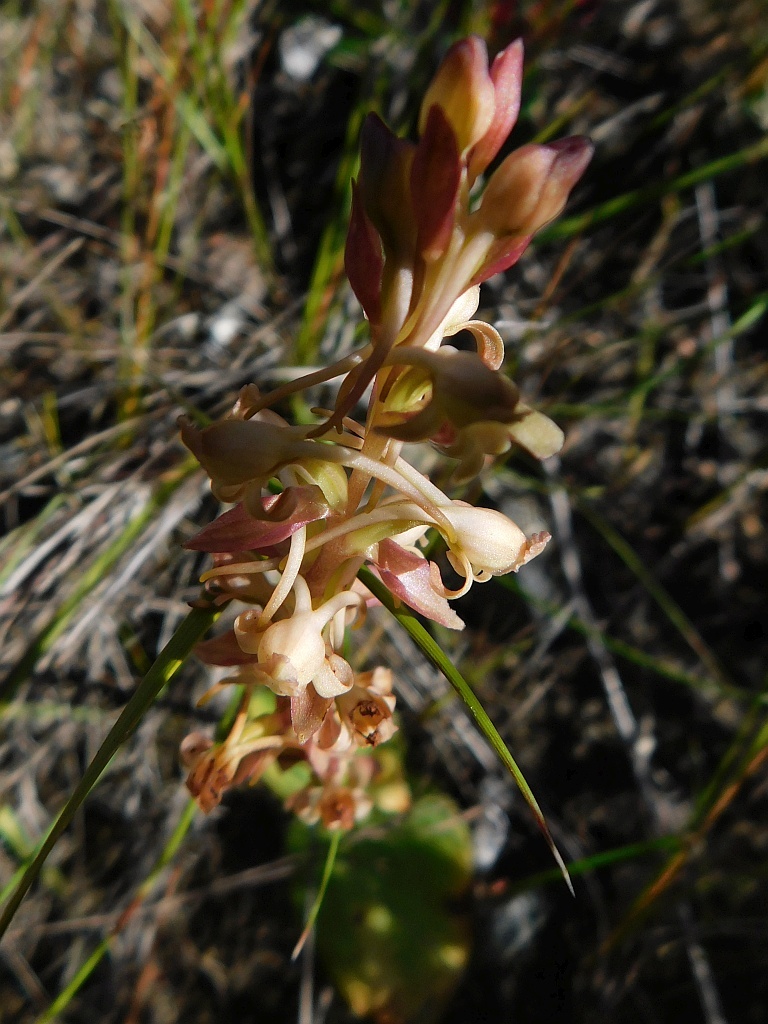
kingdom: Plantae
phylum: Tracheophyta
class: Liliopsida
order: Asparagales
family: Orchidaceae
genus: Satyrium
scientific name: Satyrium humile
